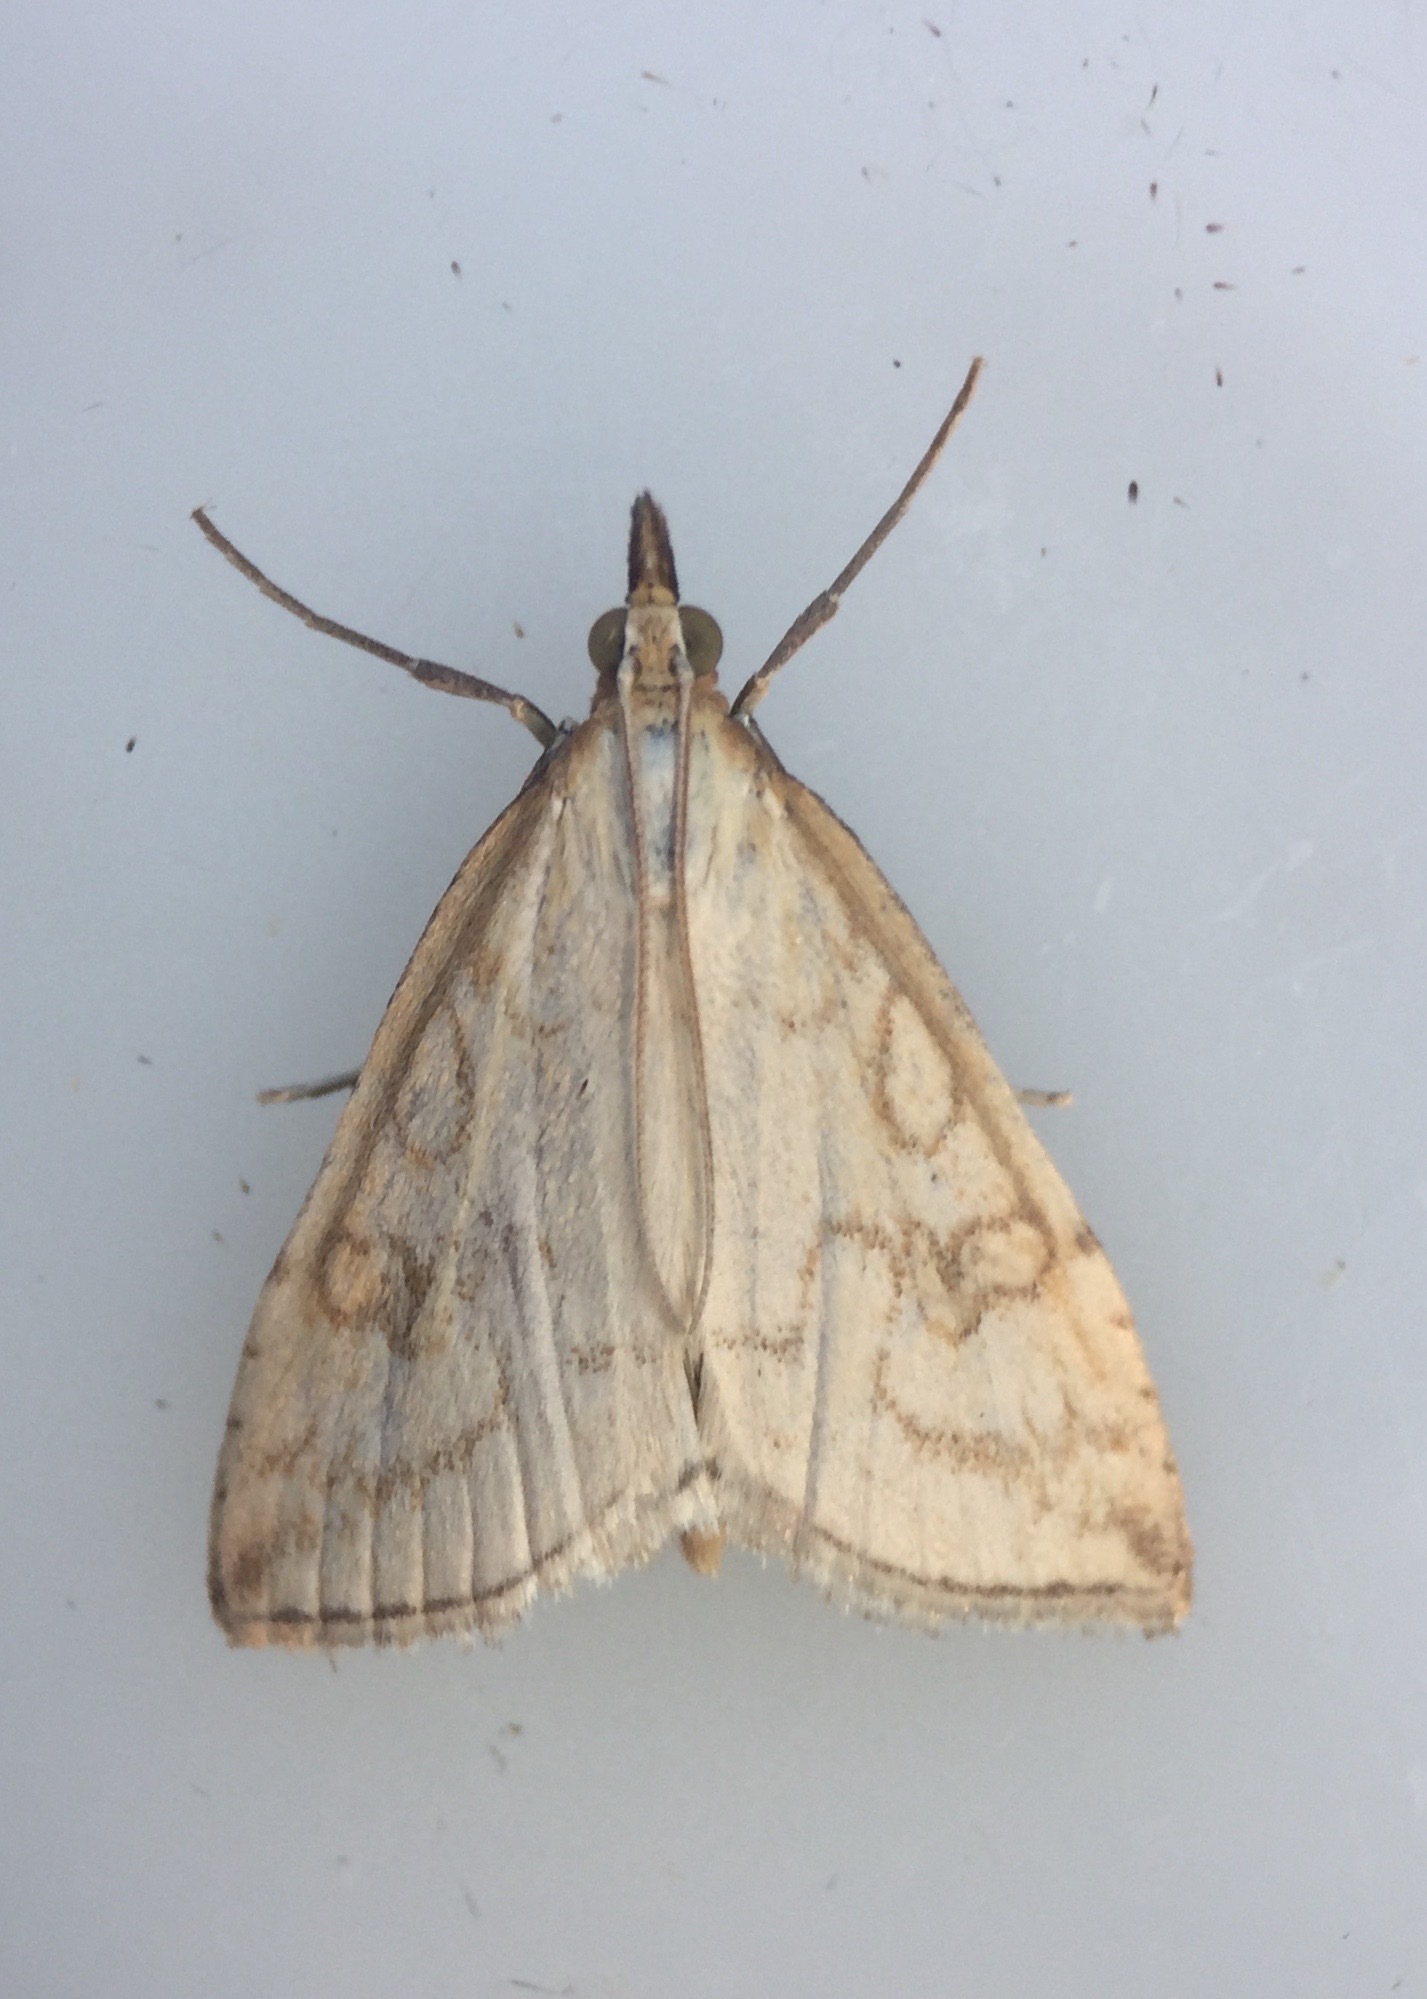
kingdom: Animalia
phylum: Arthropoda
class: Insecta
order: Lepidoptera
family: Crambidae
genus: Udea
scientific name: Udea lutealis
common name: Pale straw pearl
